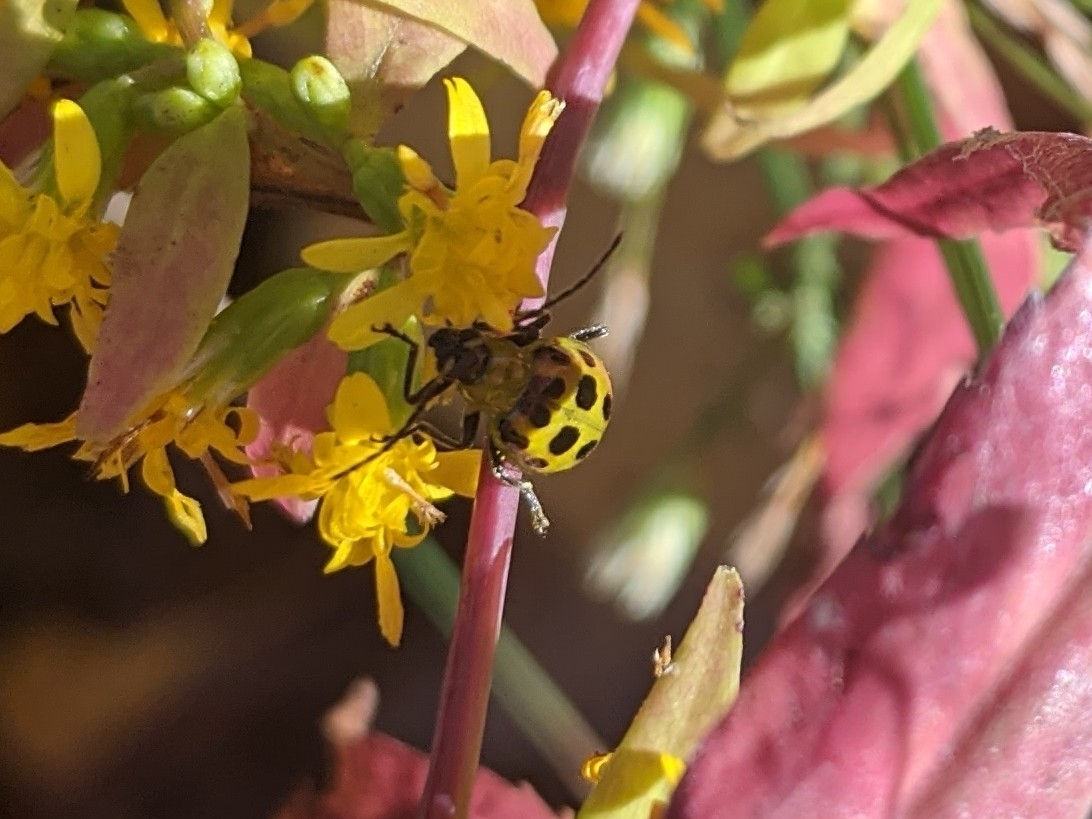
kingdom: Animalia
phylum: Arthropoda
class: Insecta
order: Coleoptera
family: Chrysomelidae
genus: Diabrotica
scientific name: Diabrotica undecimpunctata
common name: Spotted cucumber beetle
